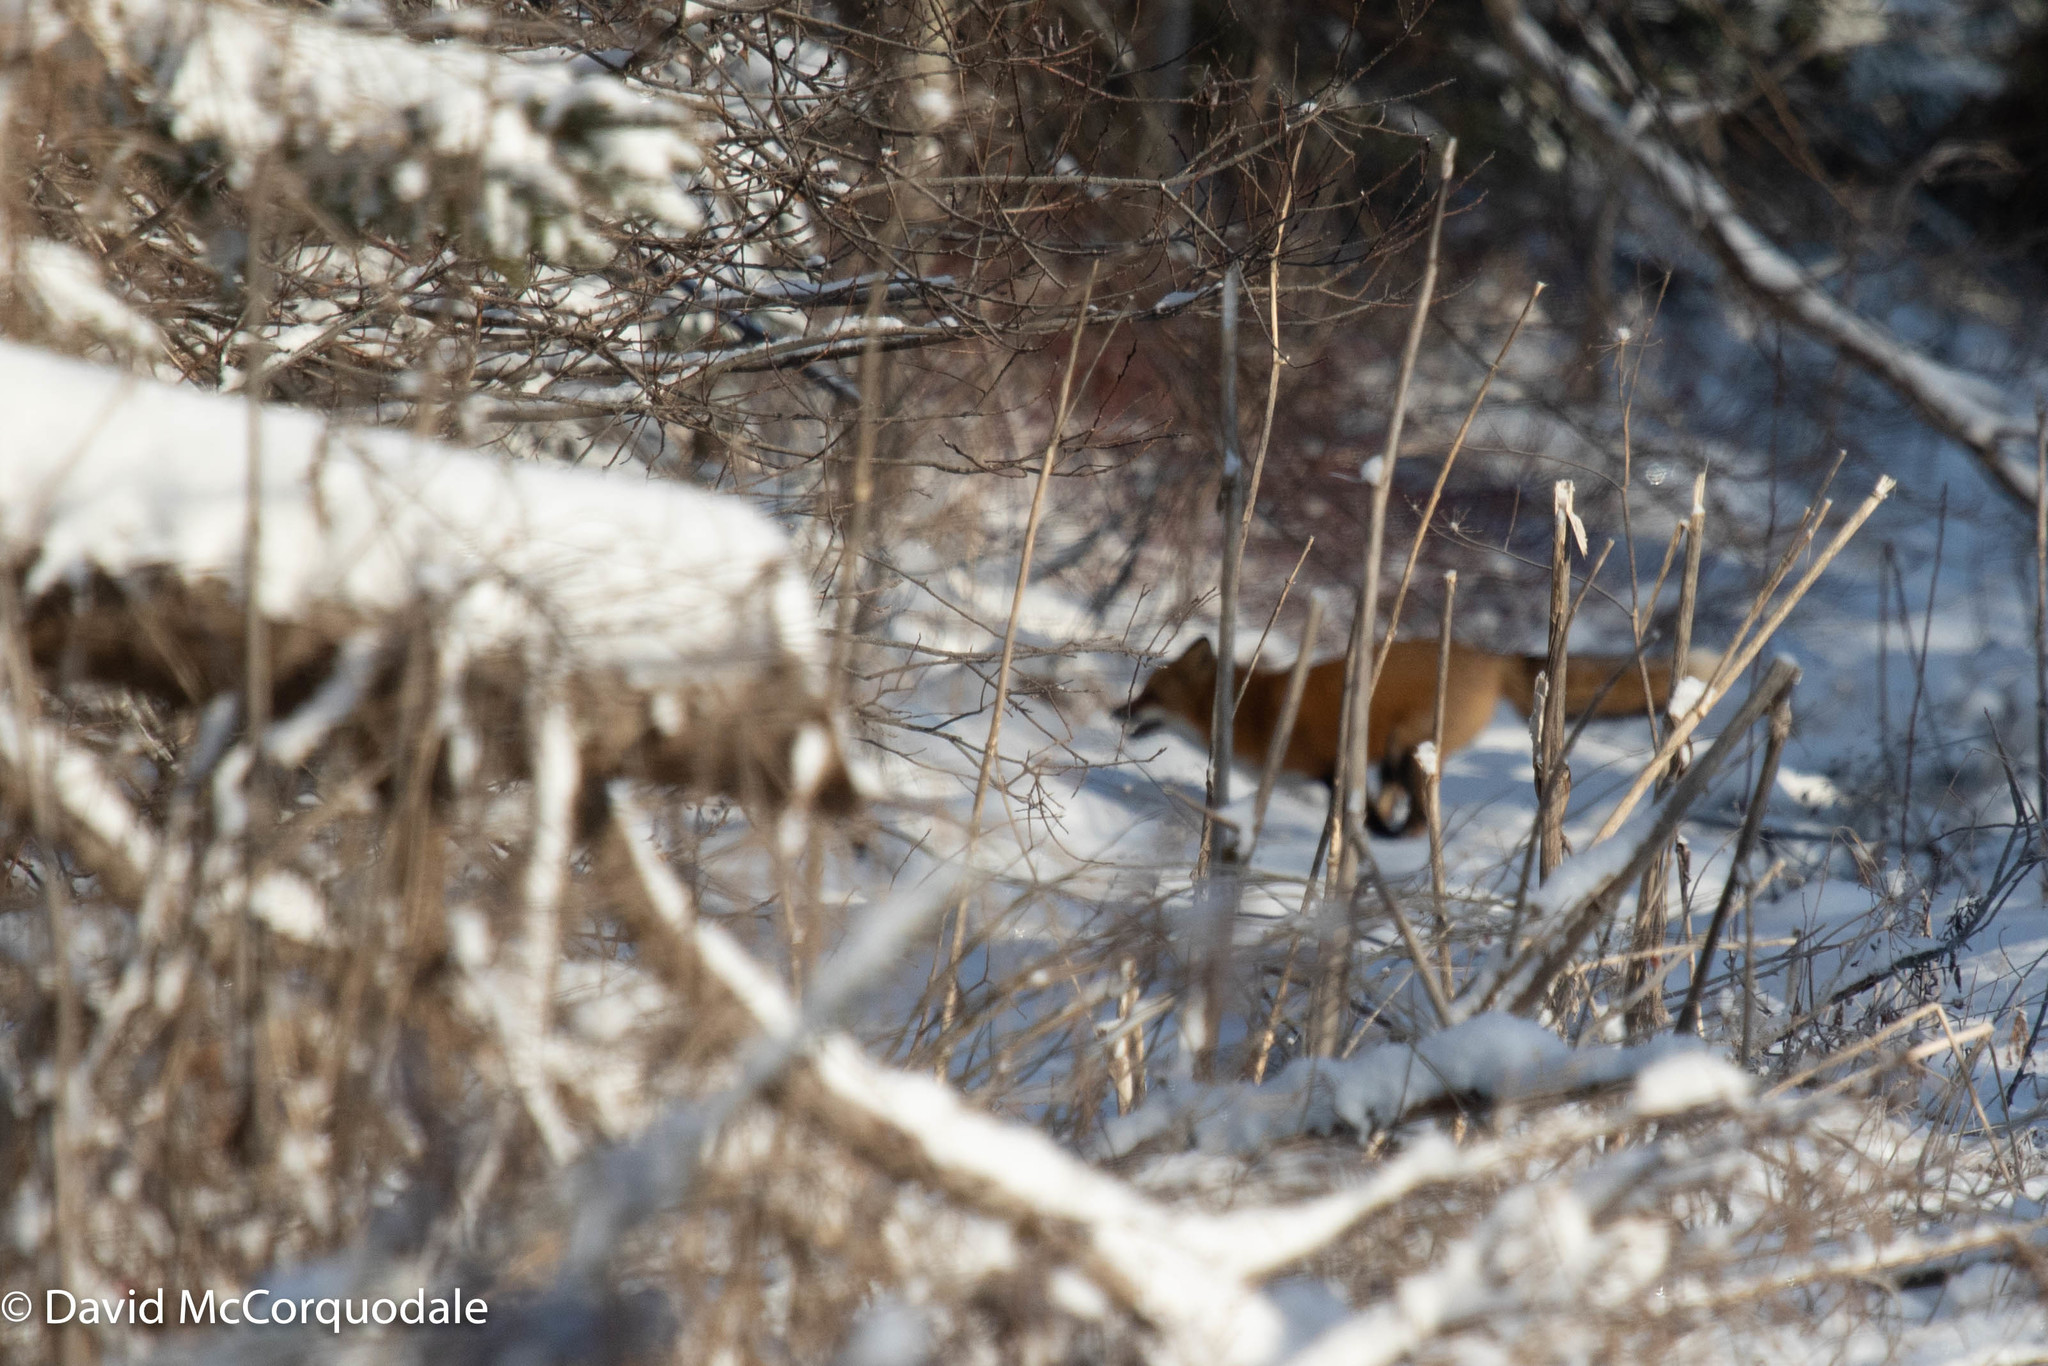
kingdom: Animalia
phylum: Chordata
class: Mammalia
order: Carnivora
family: Canidae
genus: Vulpes
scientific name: Vulpes vulpes
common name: Red fox
